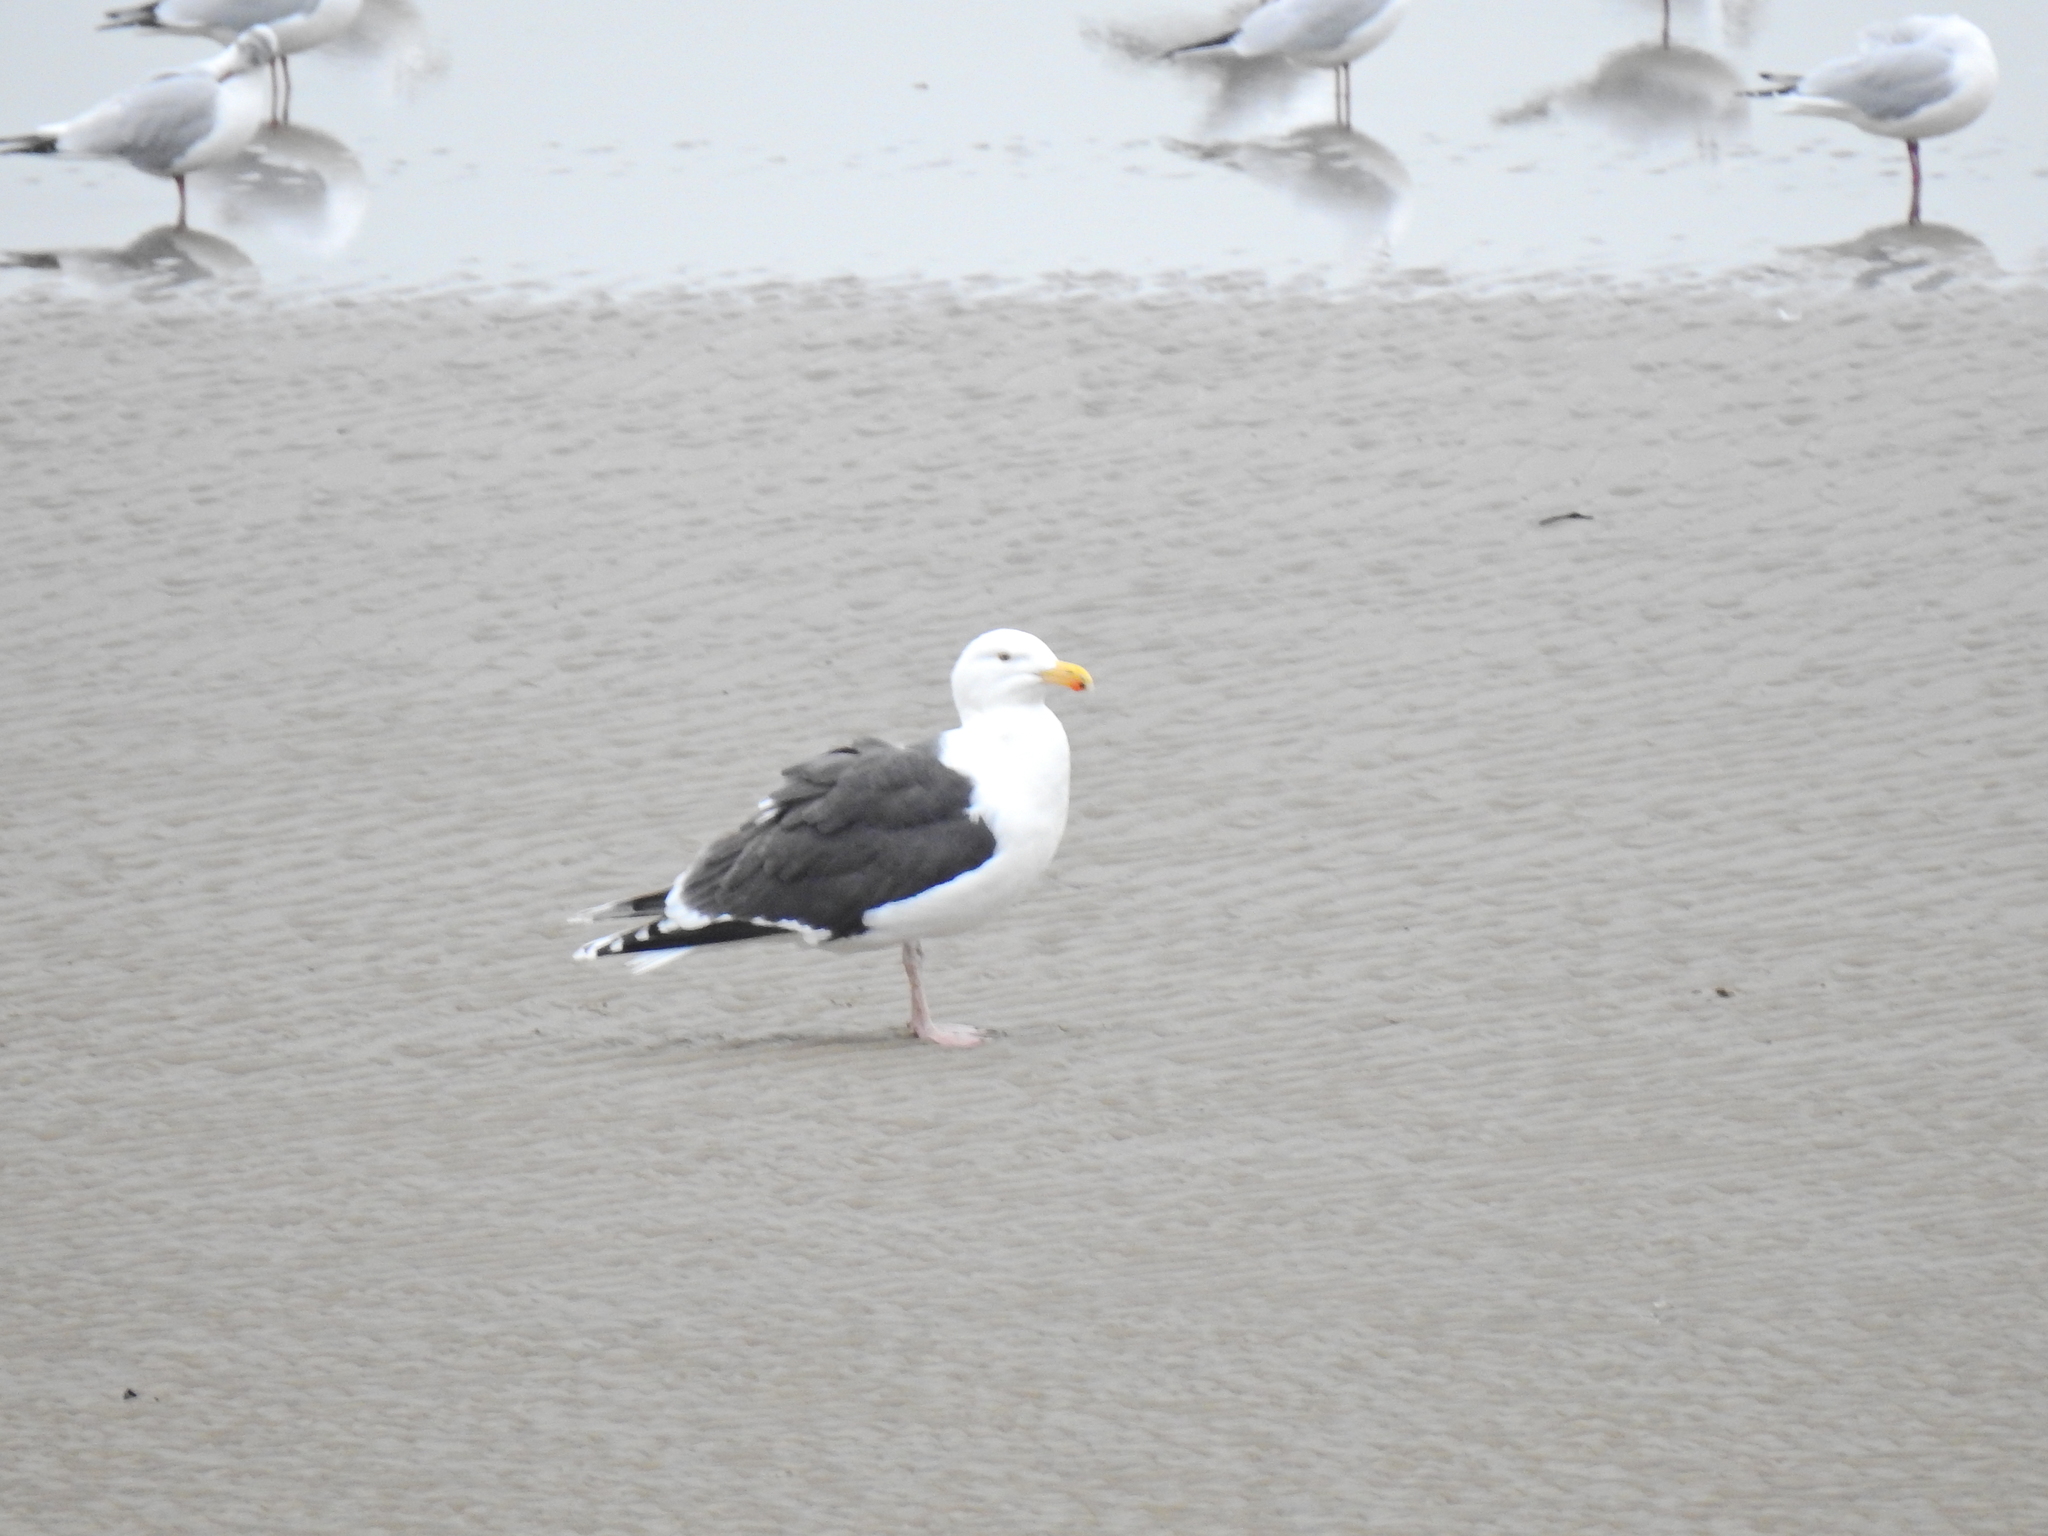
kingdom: Animalia
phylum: Chordata
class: Aves
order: Charadriiformes
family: Laridae
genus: Larus
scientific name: Larus marinus
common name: Great black-backed gull
